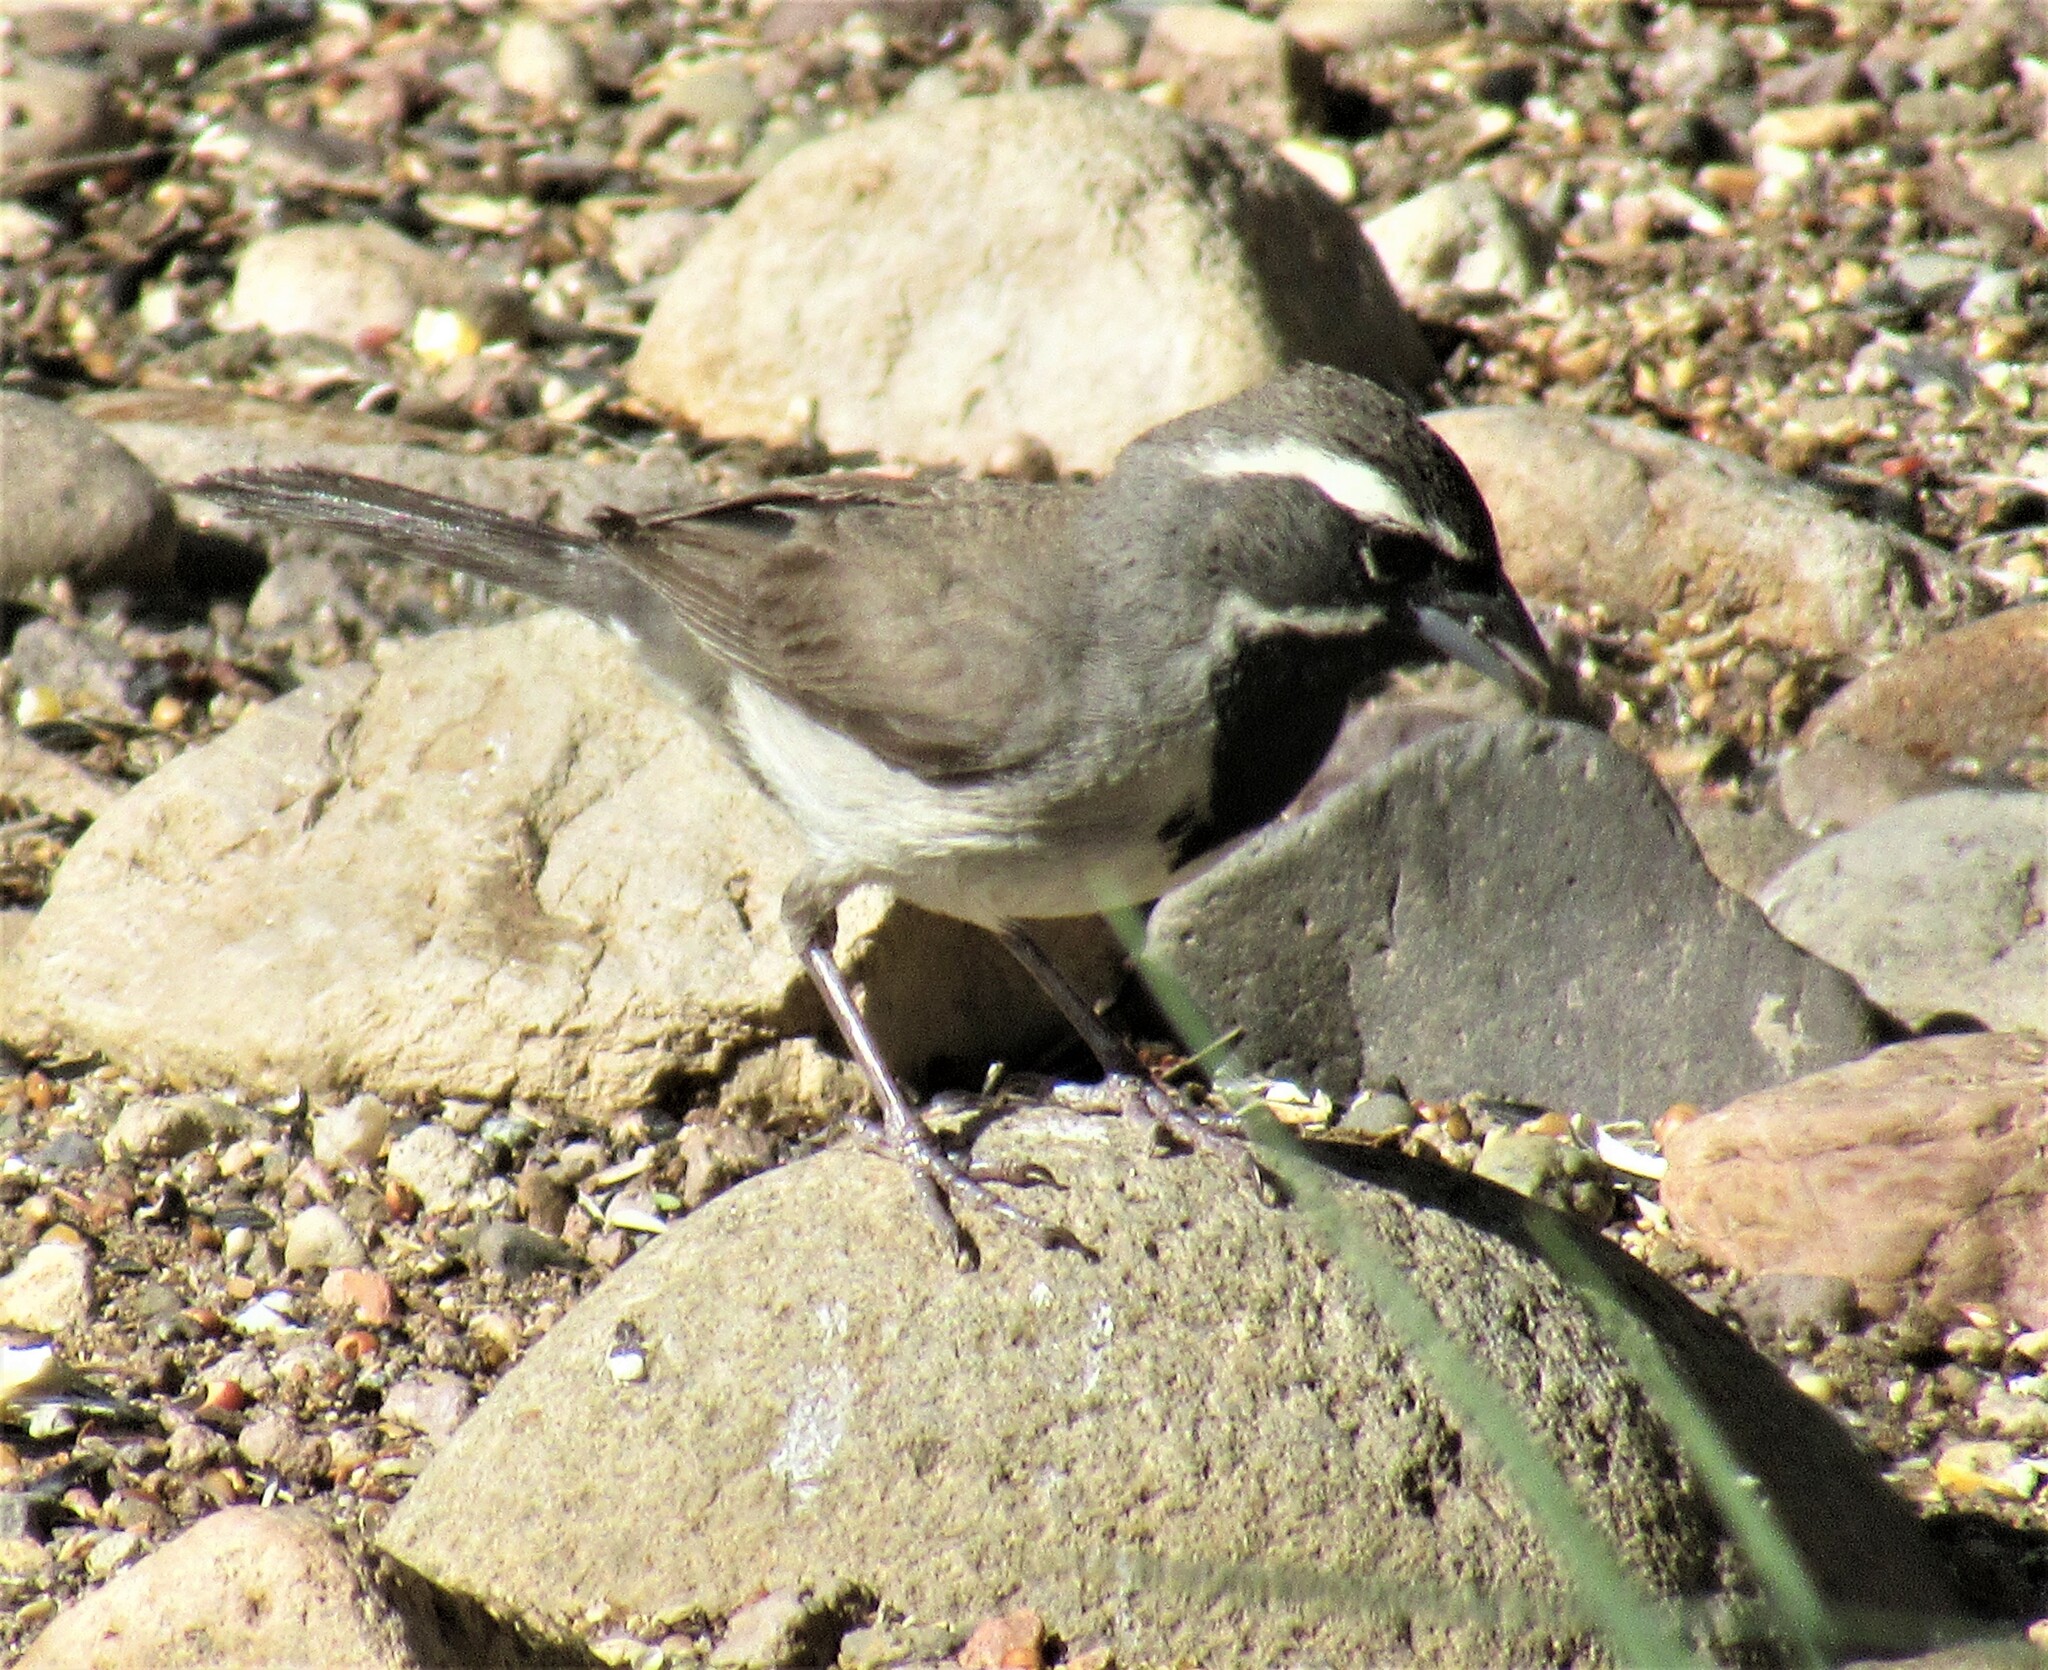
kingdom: Animalia
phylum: Chordata
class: Aves
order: Passeriformes
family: Passerellidae
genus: Amphispiza
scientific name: Amphispiza bilineata
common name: Black-throated sparrow
